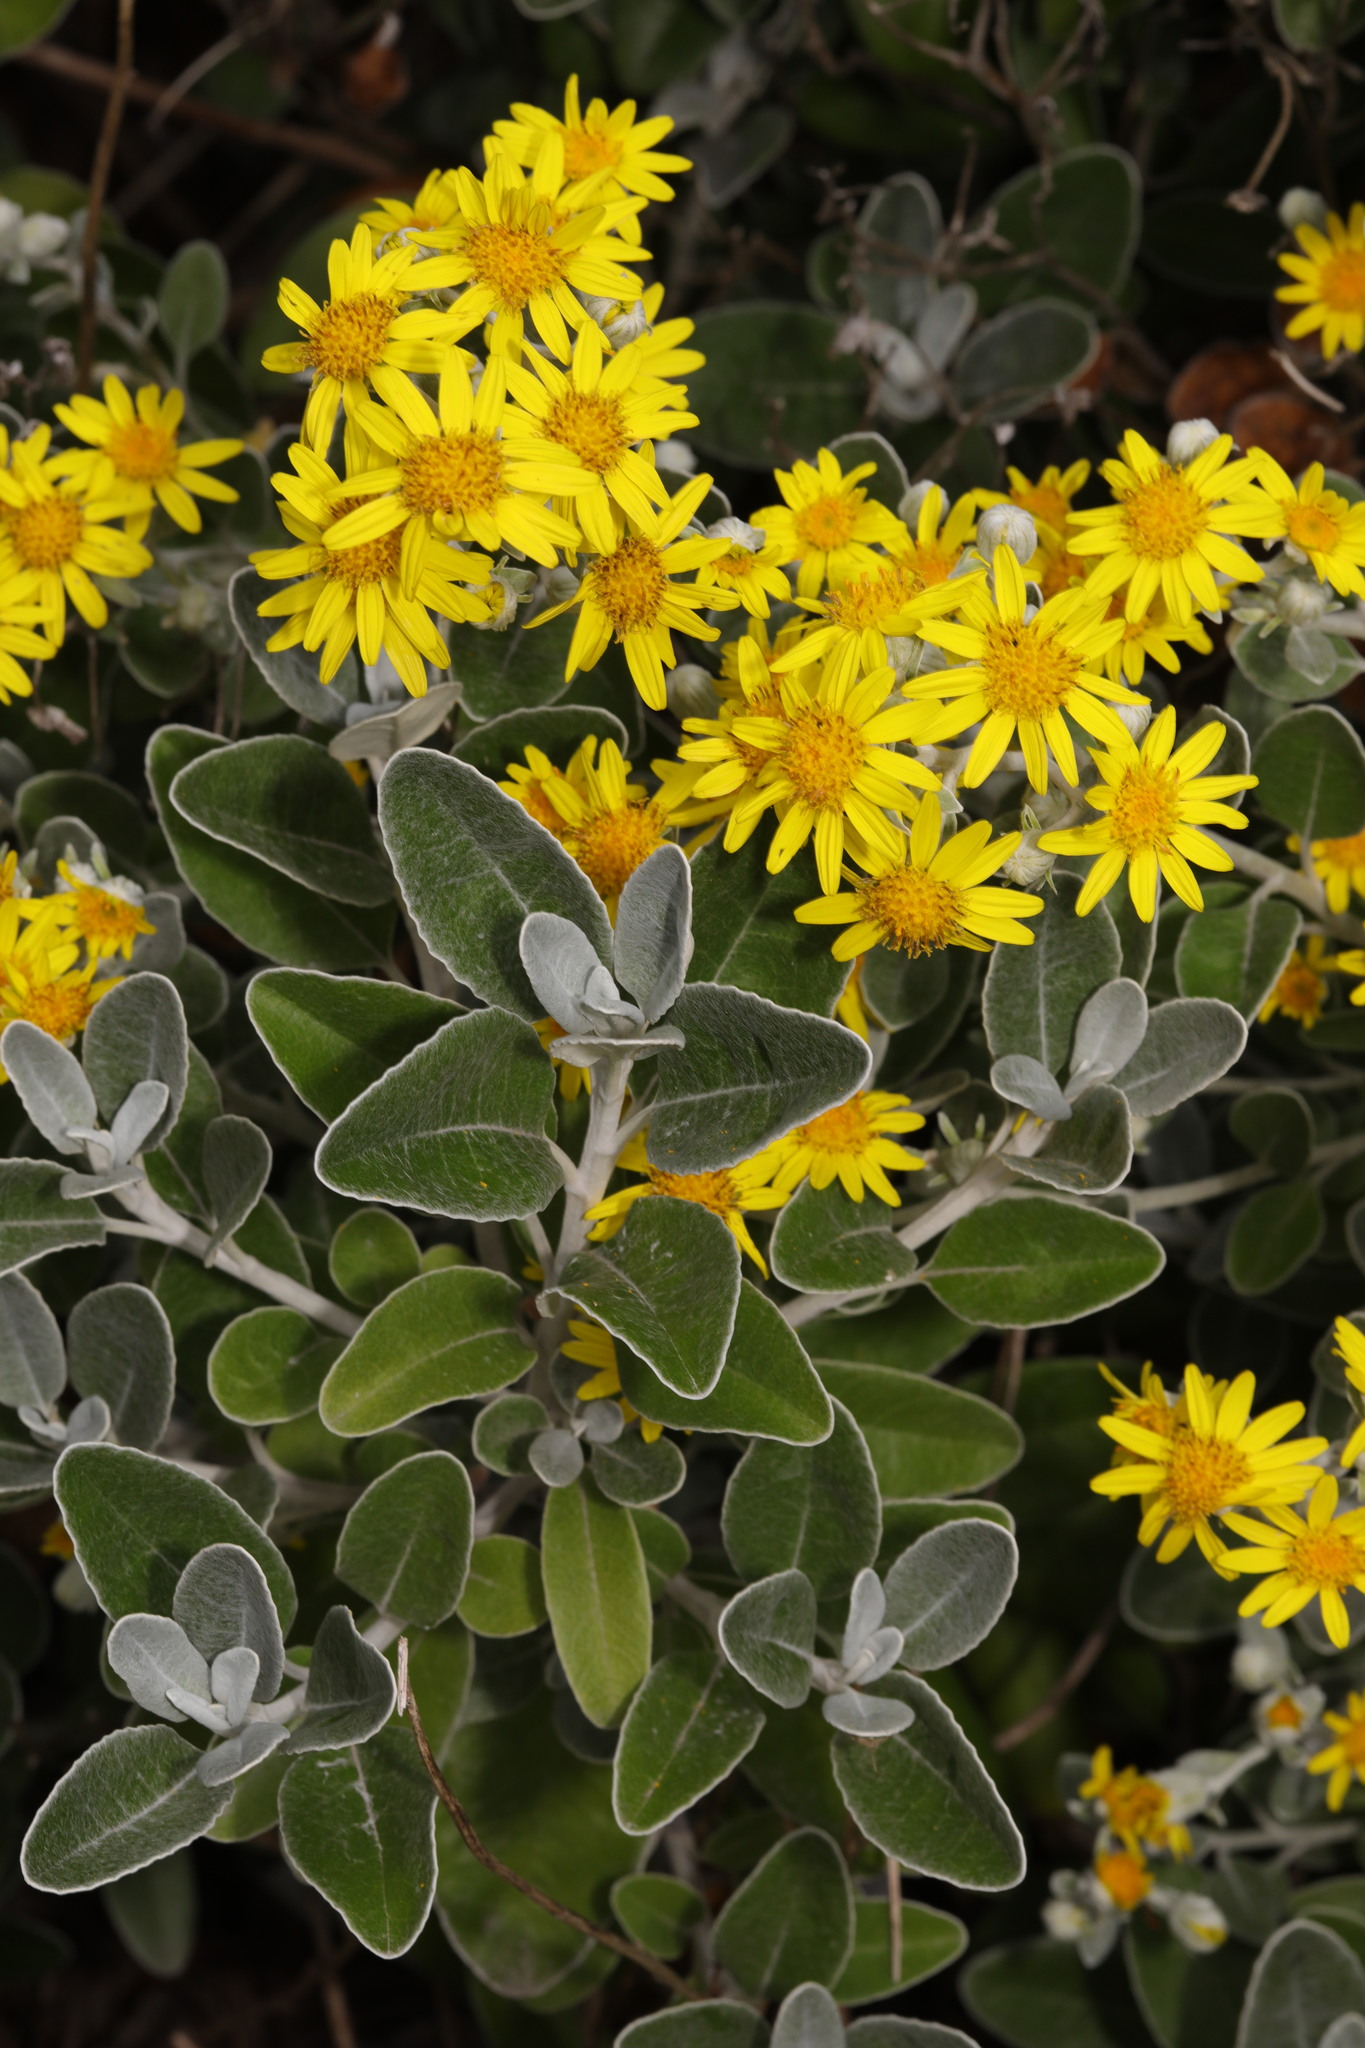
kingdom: Plantae
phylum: Tracheophyta
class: Magnoliopsida
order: Asterales
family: Asteraceae
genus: Brachyglottis
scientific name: Brachyglottis jubar
